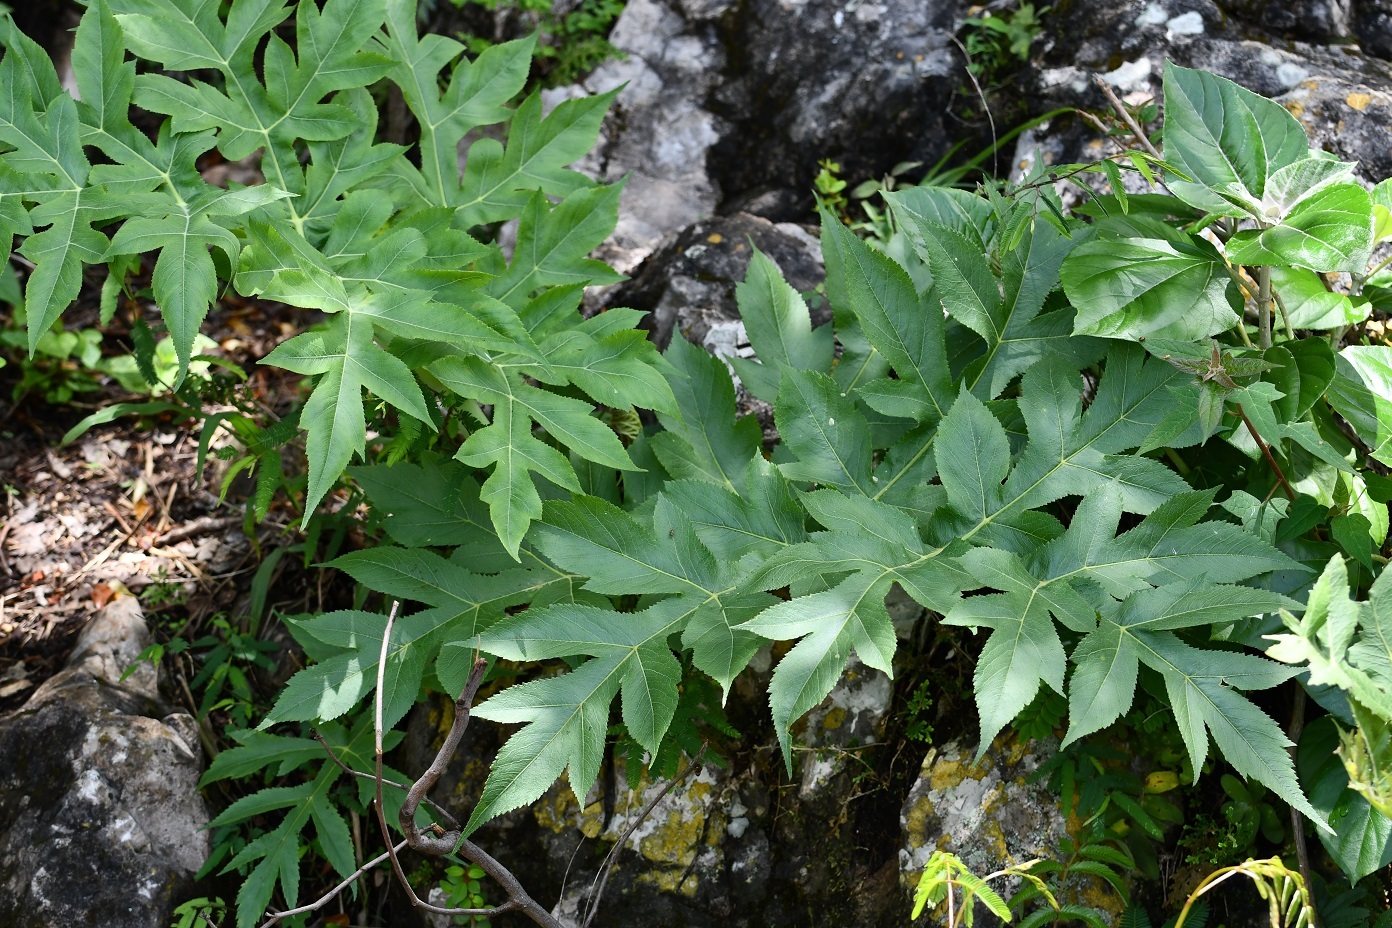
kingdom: Plantae
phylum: Tracheophyta
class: Magnoliopsida
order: Apiales
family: Apiaceae
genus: Prionosciadium
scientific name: Prionosciadium nelsonii
